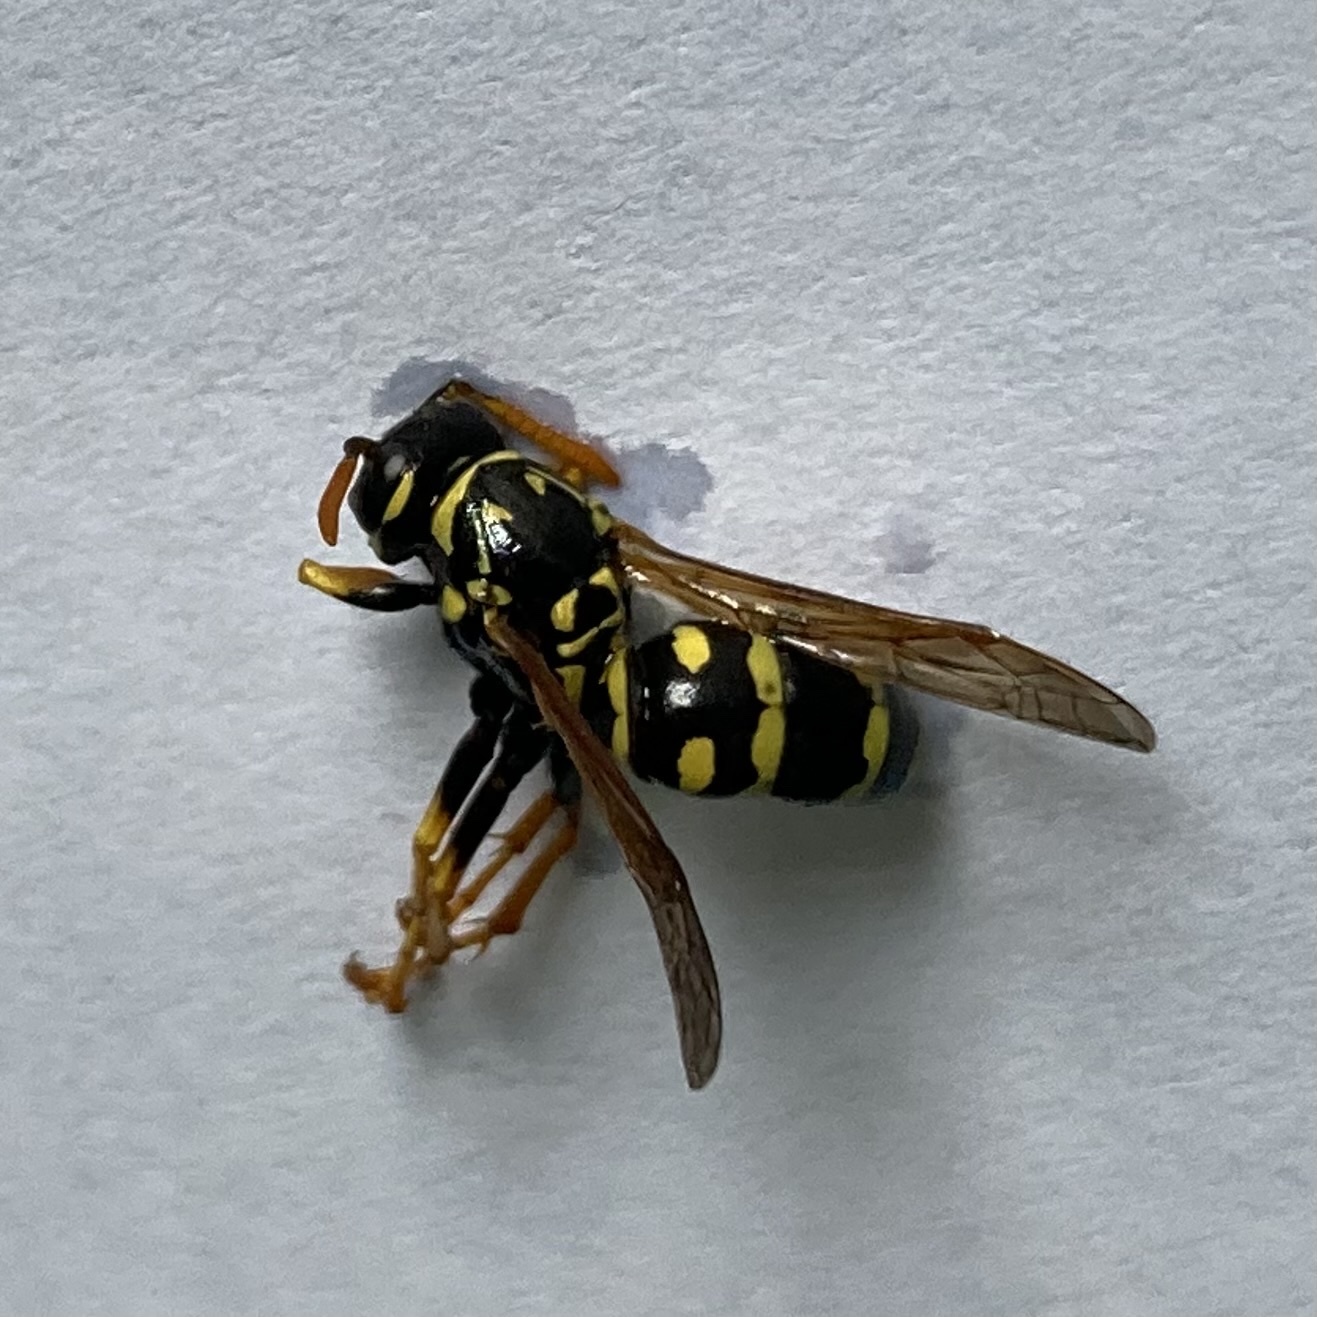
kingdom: Animalia
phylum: Arthropoda
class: Insecta
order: Hymenoptera
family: Eumenidae
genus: Polistes
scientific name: Polistes dominula
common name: Paper wasp
